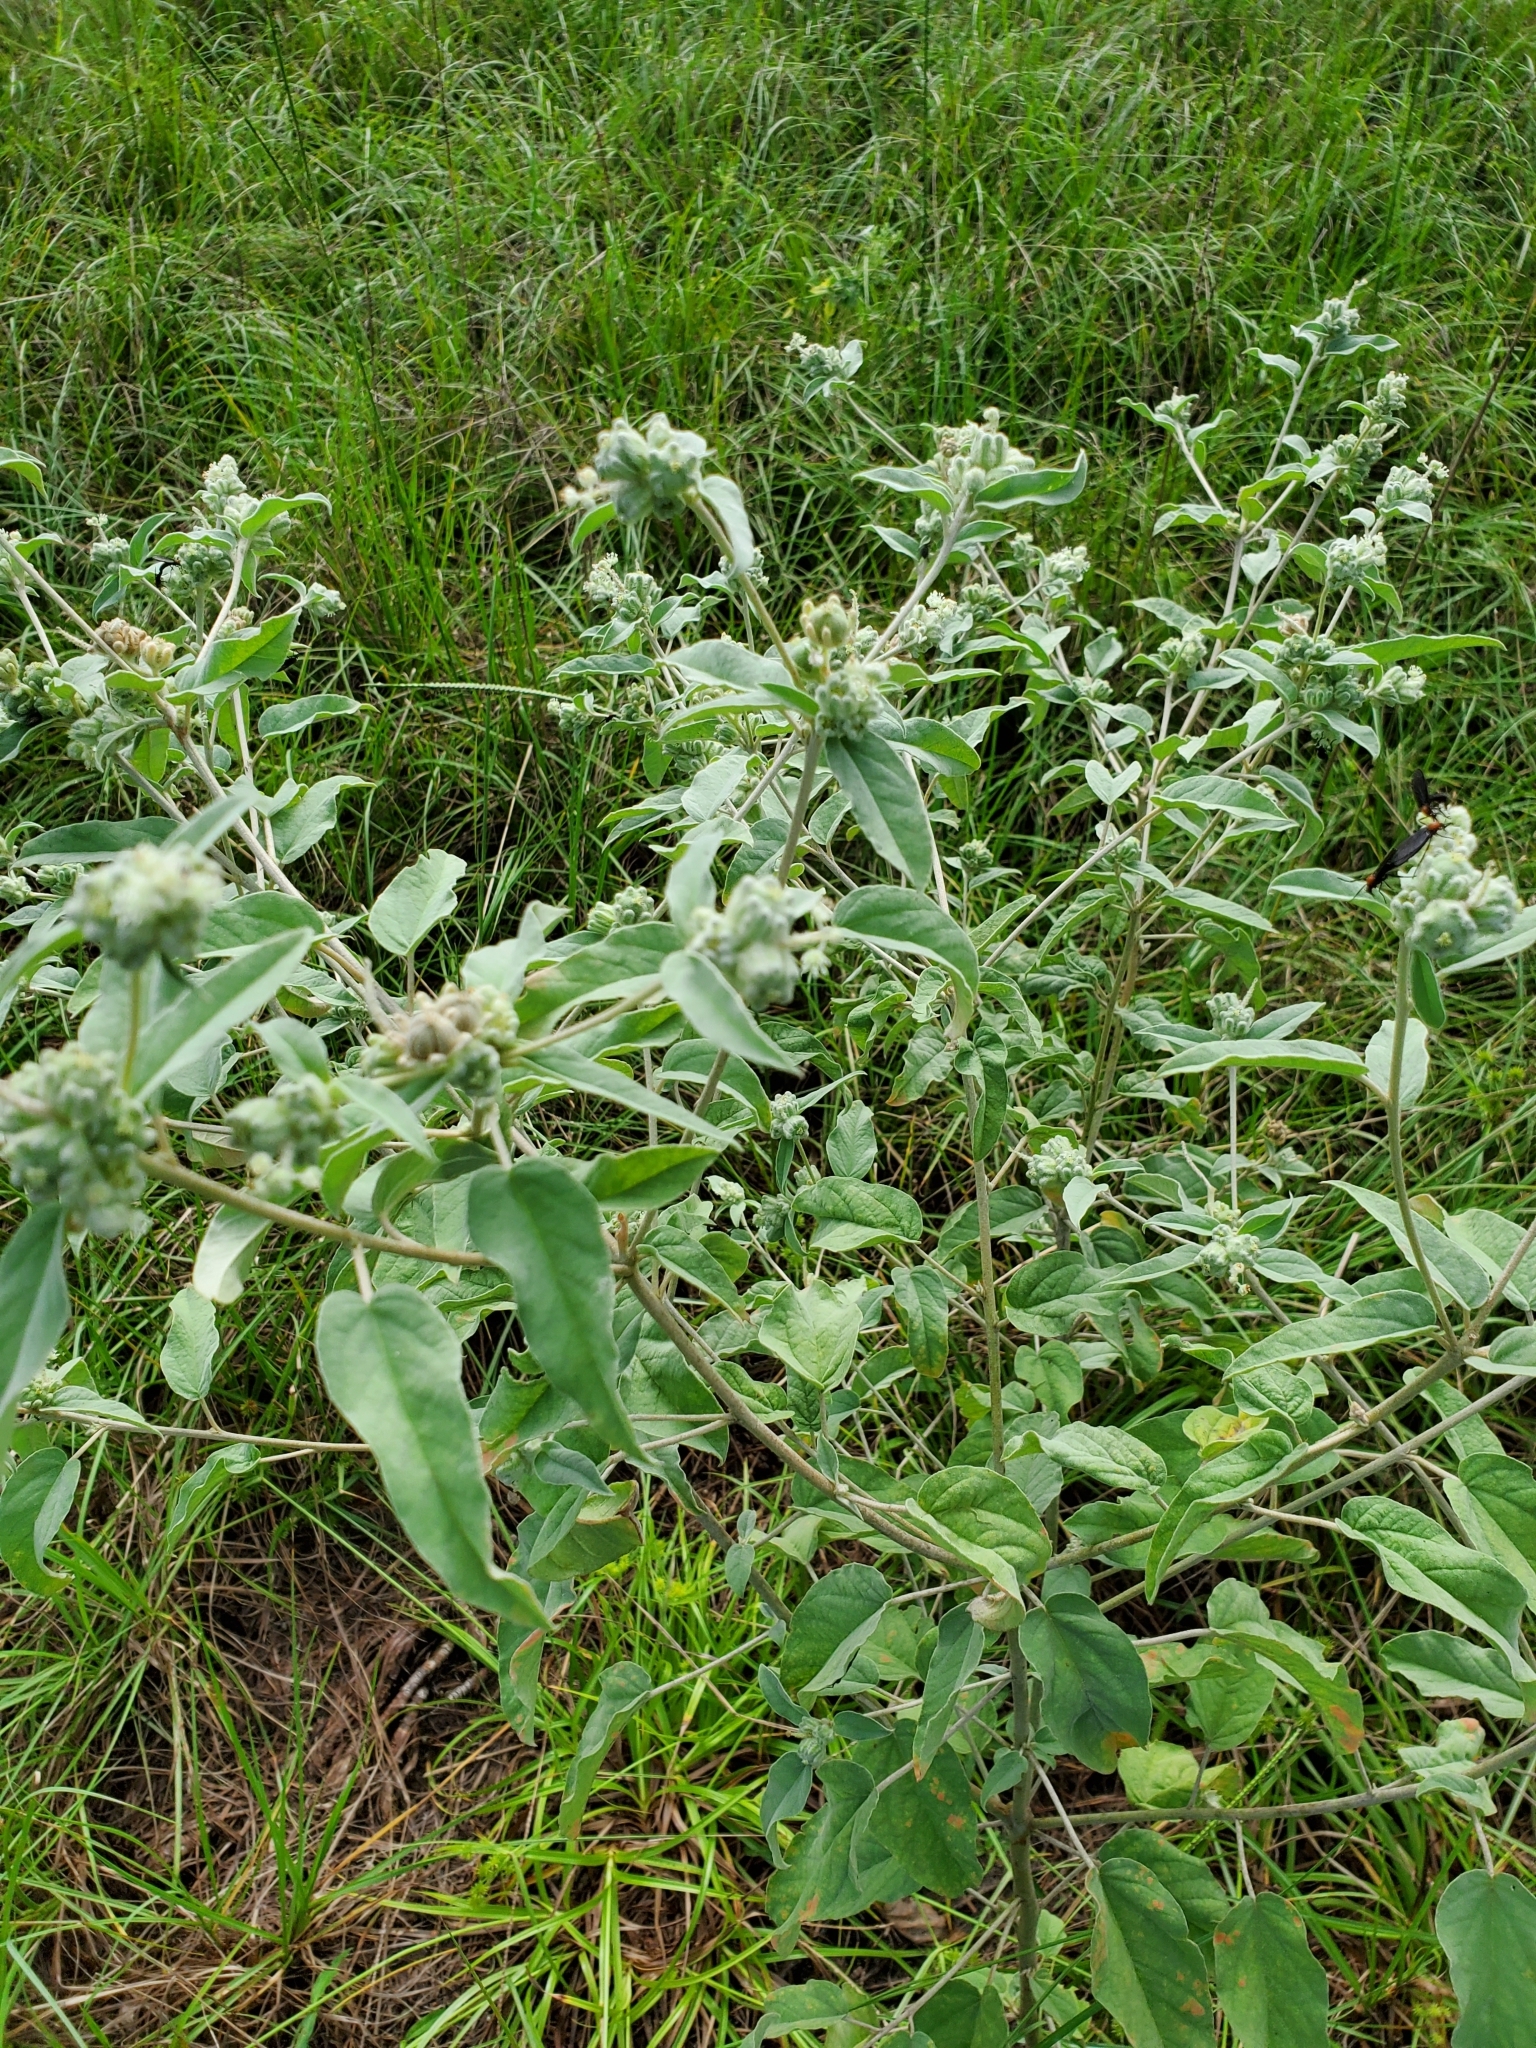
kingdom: Plantae
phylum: Tracheophyta
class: Magnoliopsida
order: Malpighiales
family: Euphorbiaceae
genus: Croton
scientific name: Croton lindheimeri
